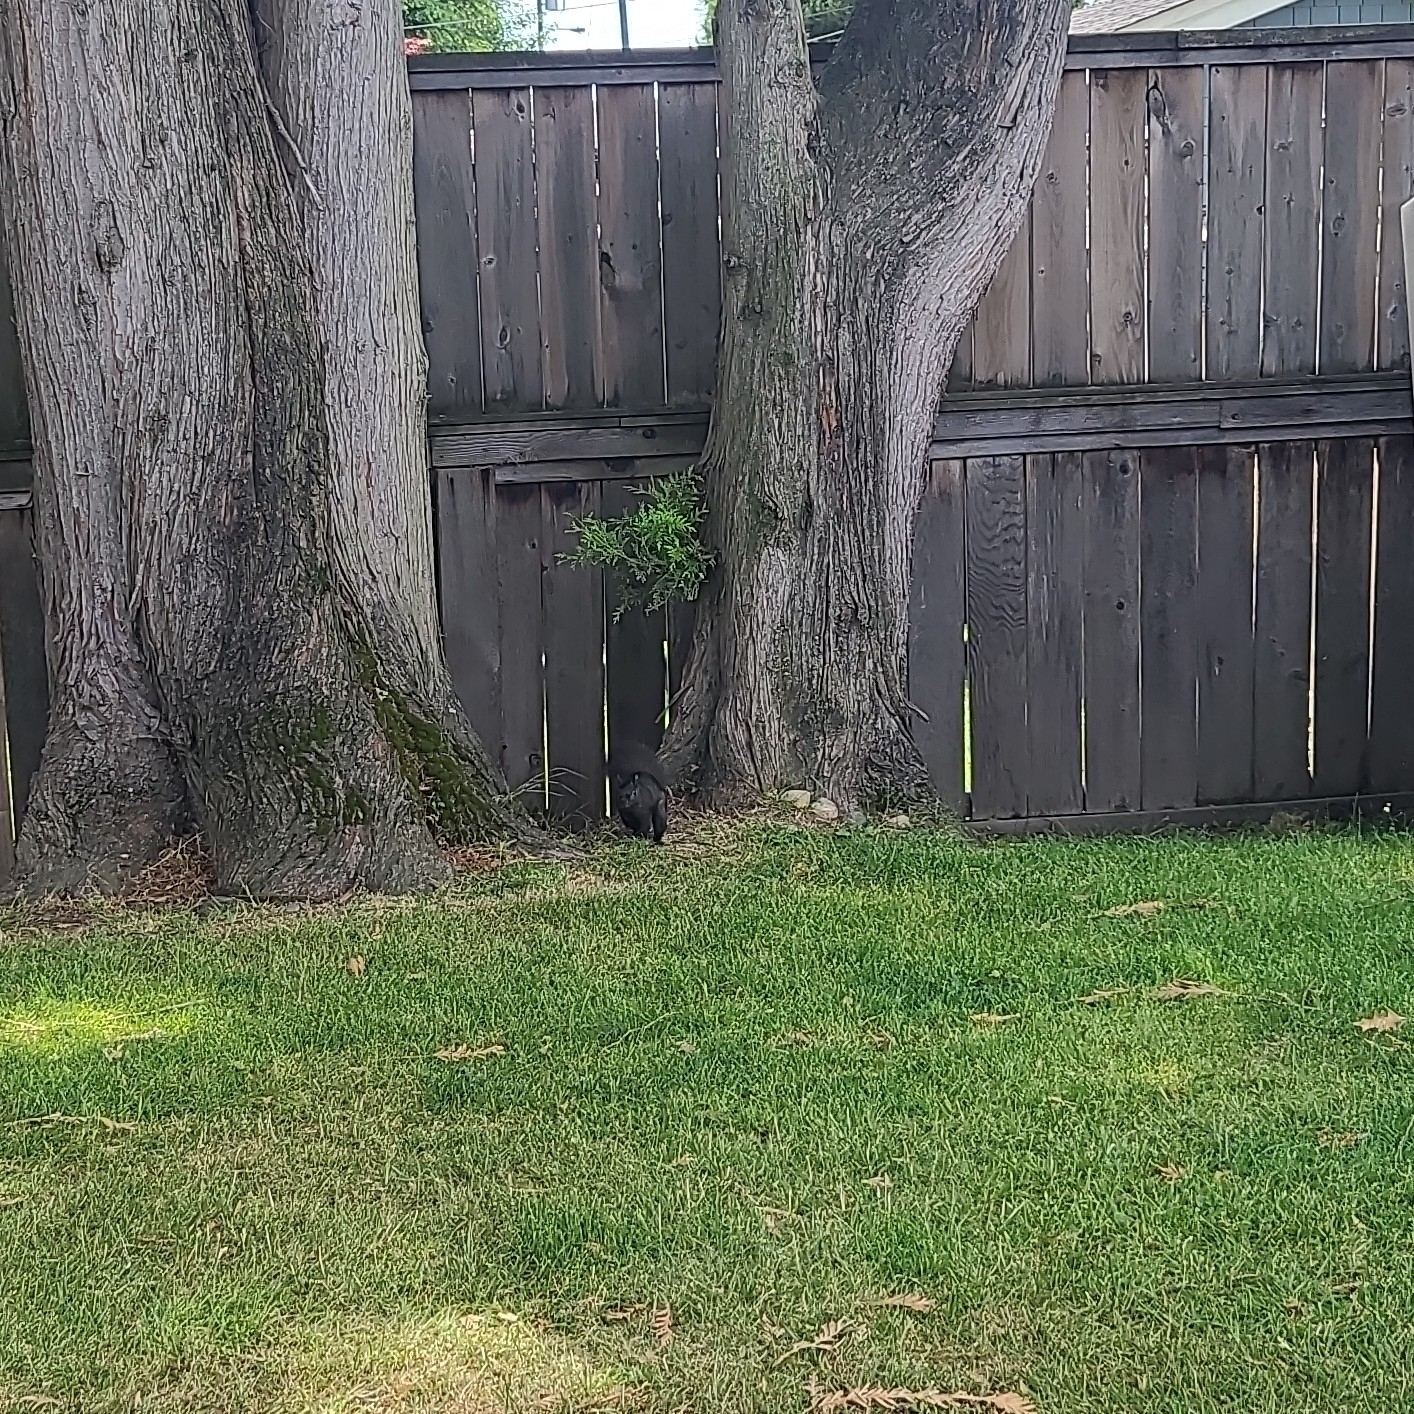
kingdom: Animalia
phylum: Chordata
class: Mammalia
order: Rodentia
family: Sciuridae
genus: Sciurus
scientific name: Sciurus carolinensis
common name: Eastern gray squirrel
